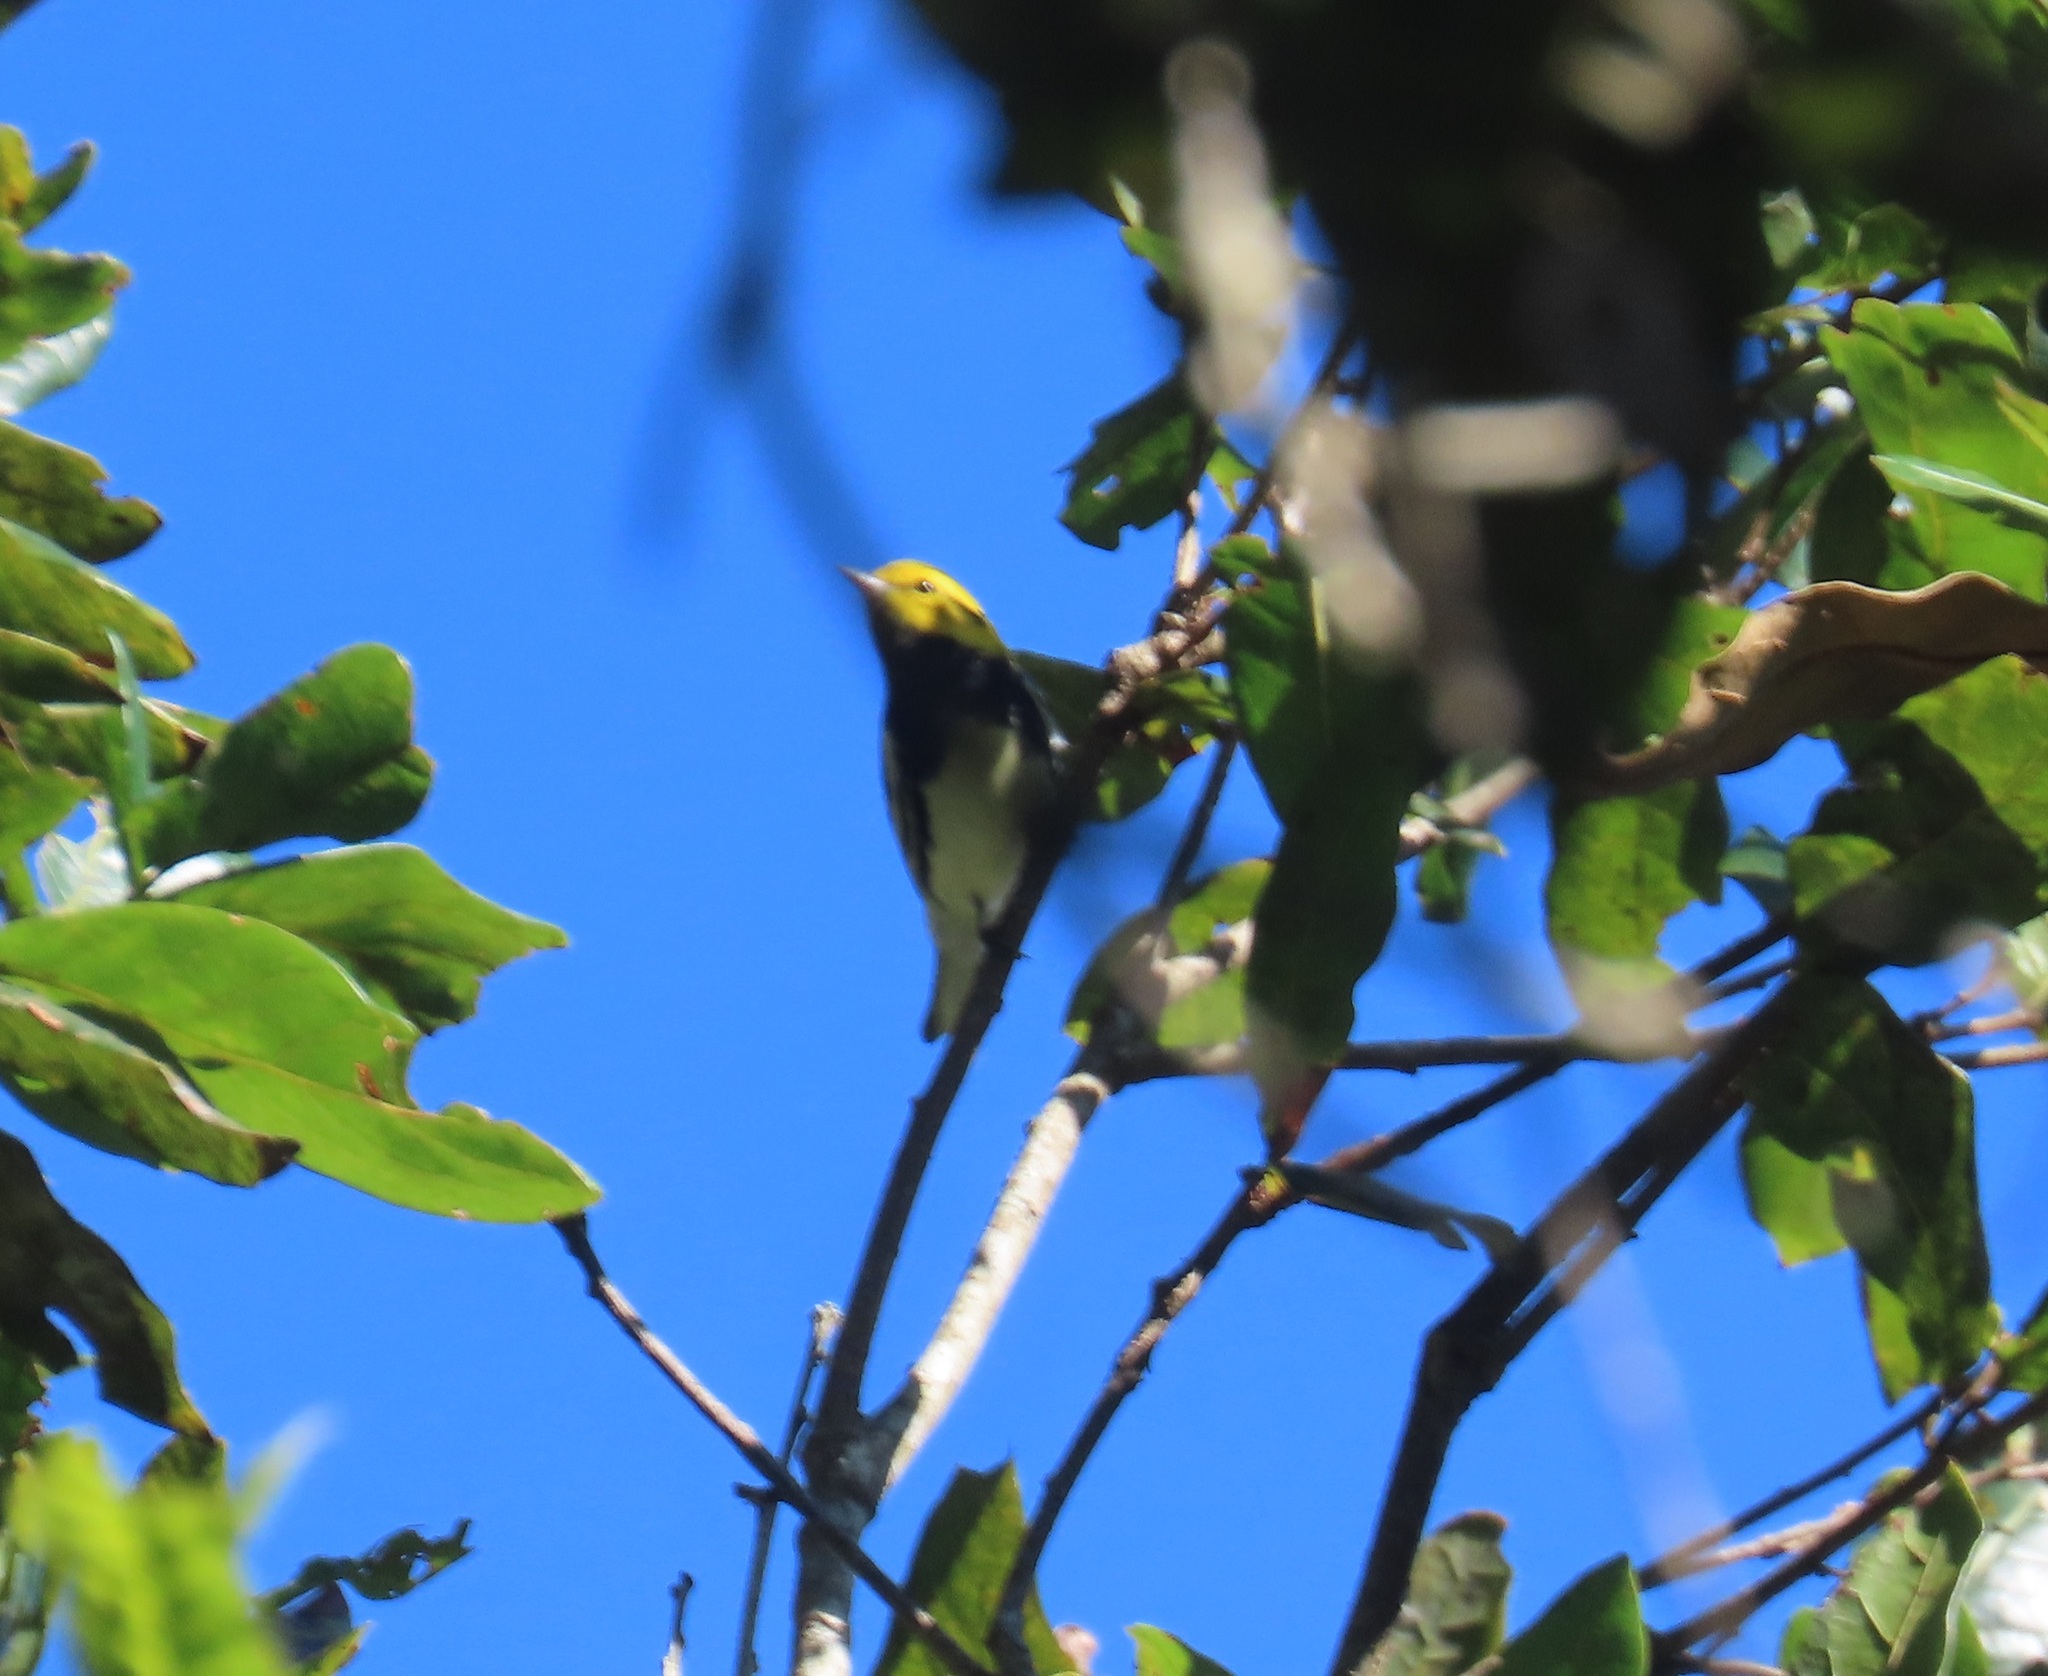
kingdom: Animalia
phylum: Chordata
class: Aves
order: Passeriformes
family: Parulidae
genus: Setophaga
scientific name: Setophaga virens
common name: Black-throated green warbler
